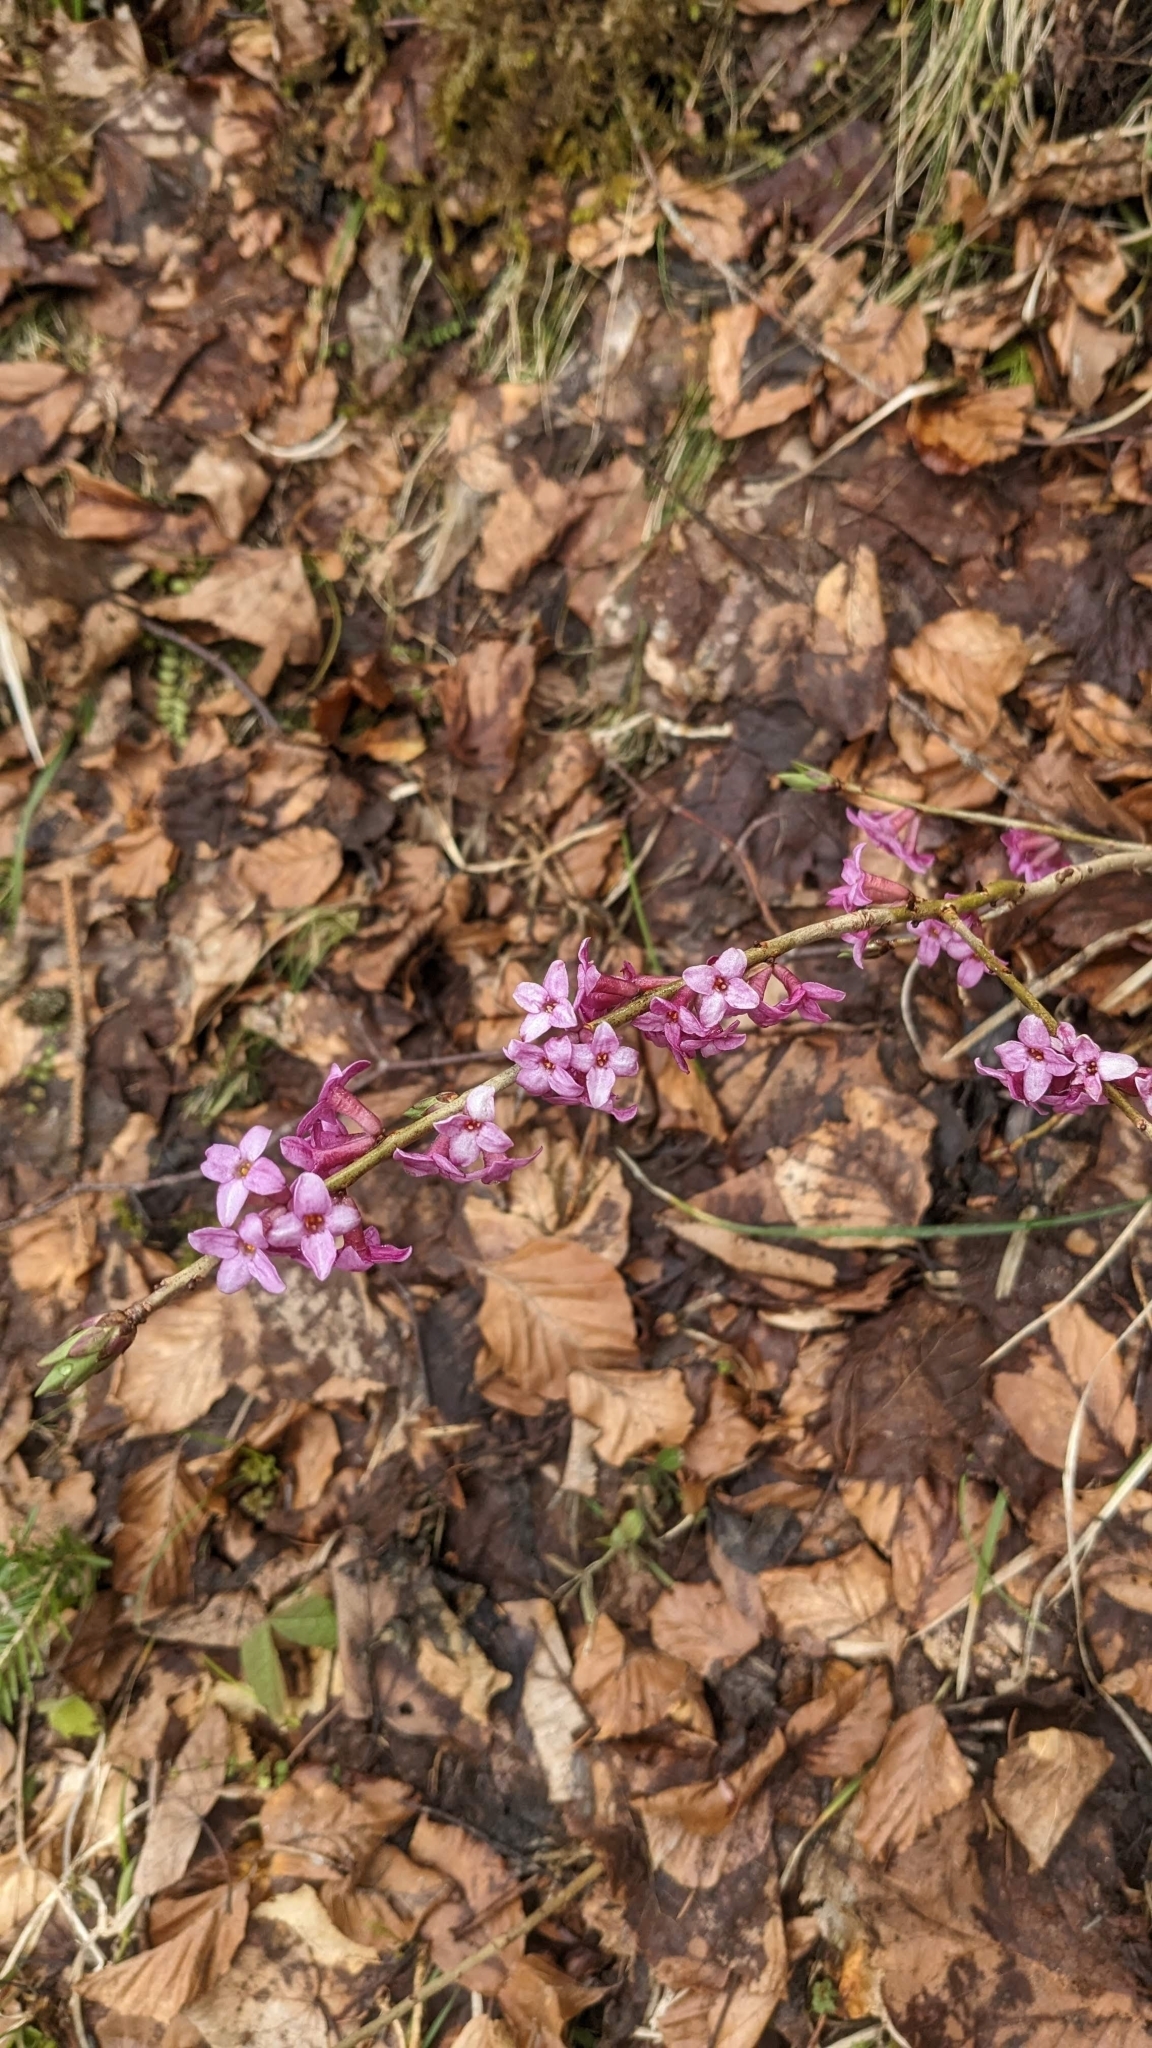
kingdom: Plantae
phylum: Tracheophyta
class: Magnoliopsida
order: Malvales
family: Thymelaeaceae
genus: Daphne
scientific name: Daphne mezereum
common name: Mezereon
